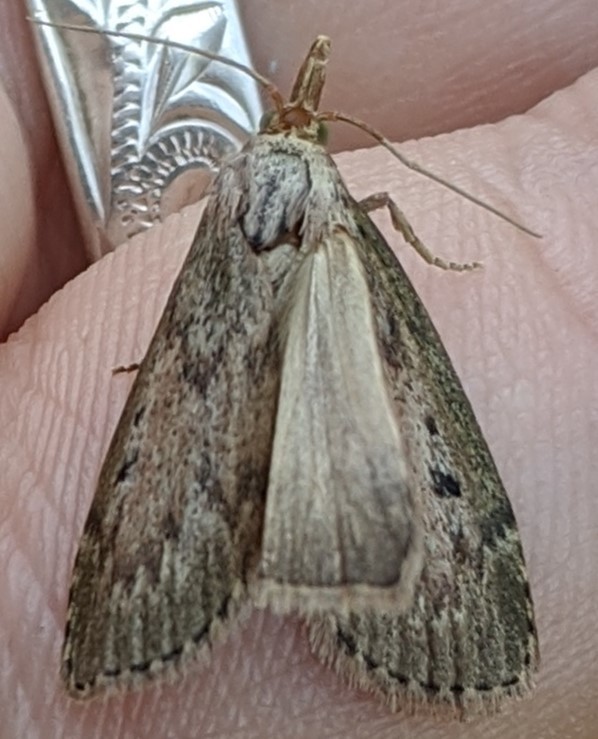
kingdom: Animalia
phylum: Arthropoda
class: Insecta
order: Lepidoptera
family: Pyralidae
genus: Aphomia
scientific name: Aphomia sociella
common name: Bee moth
